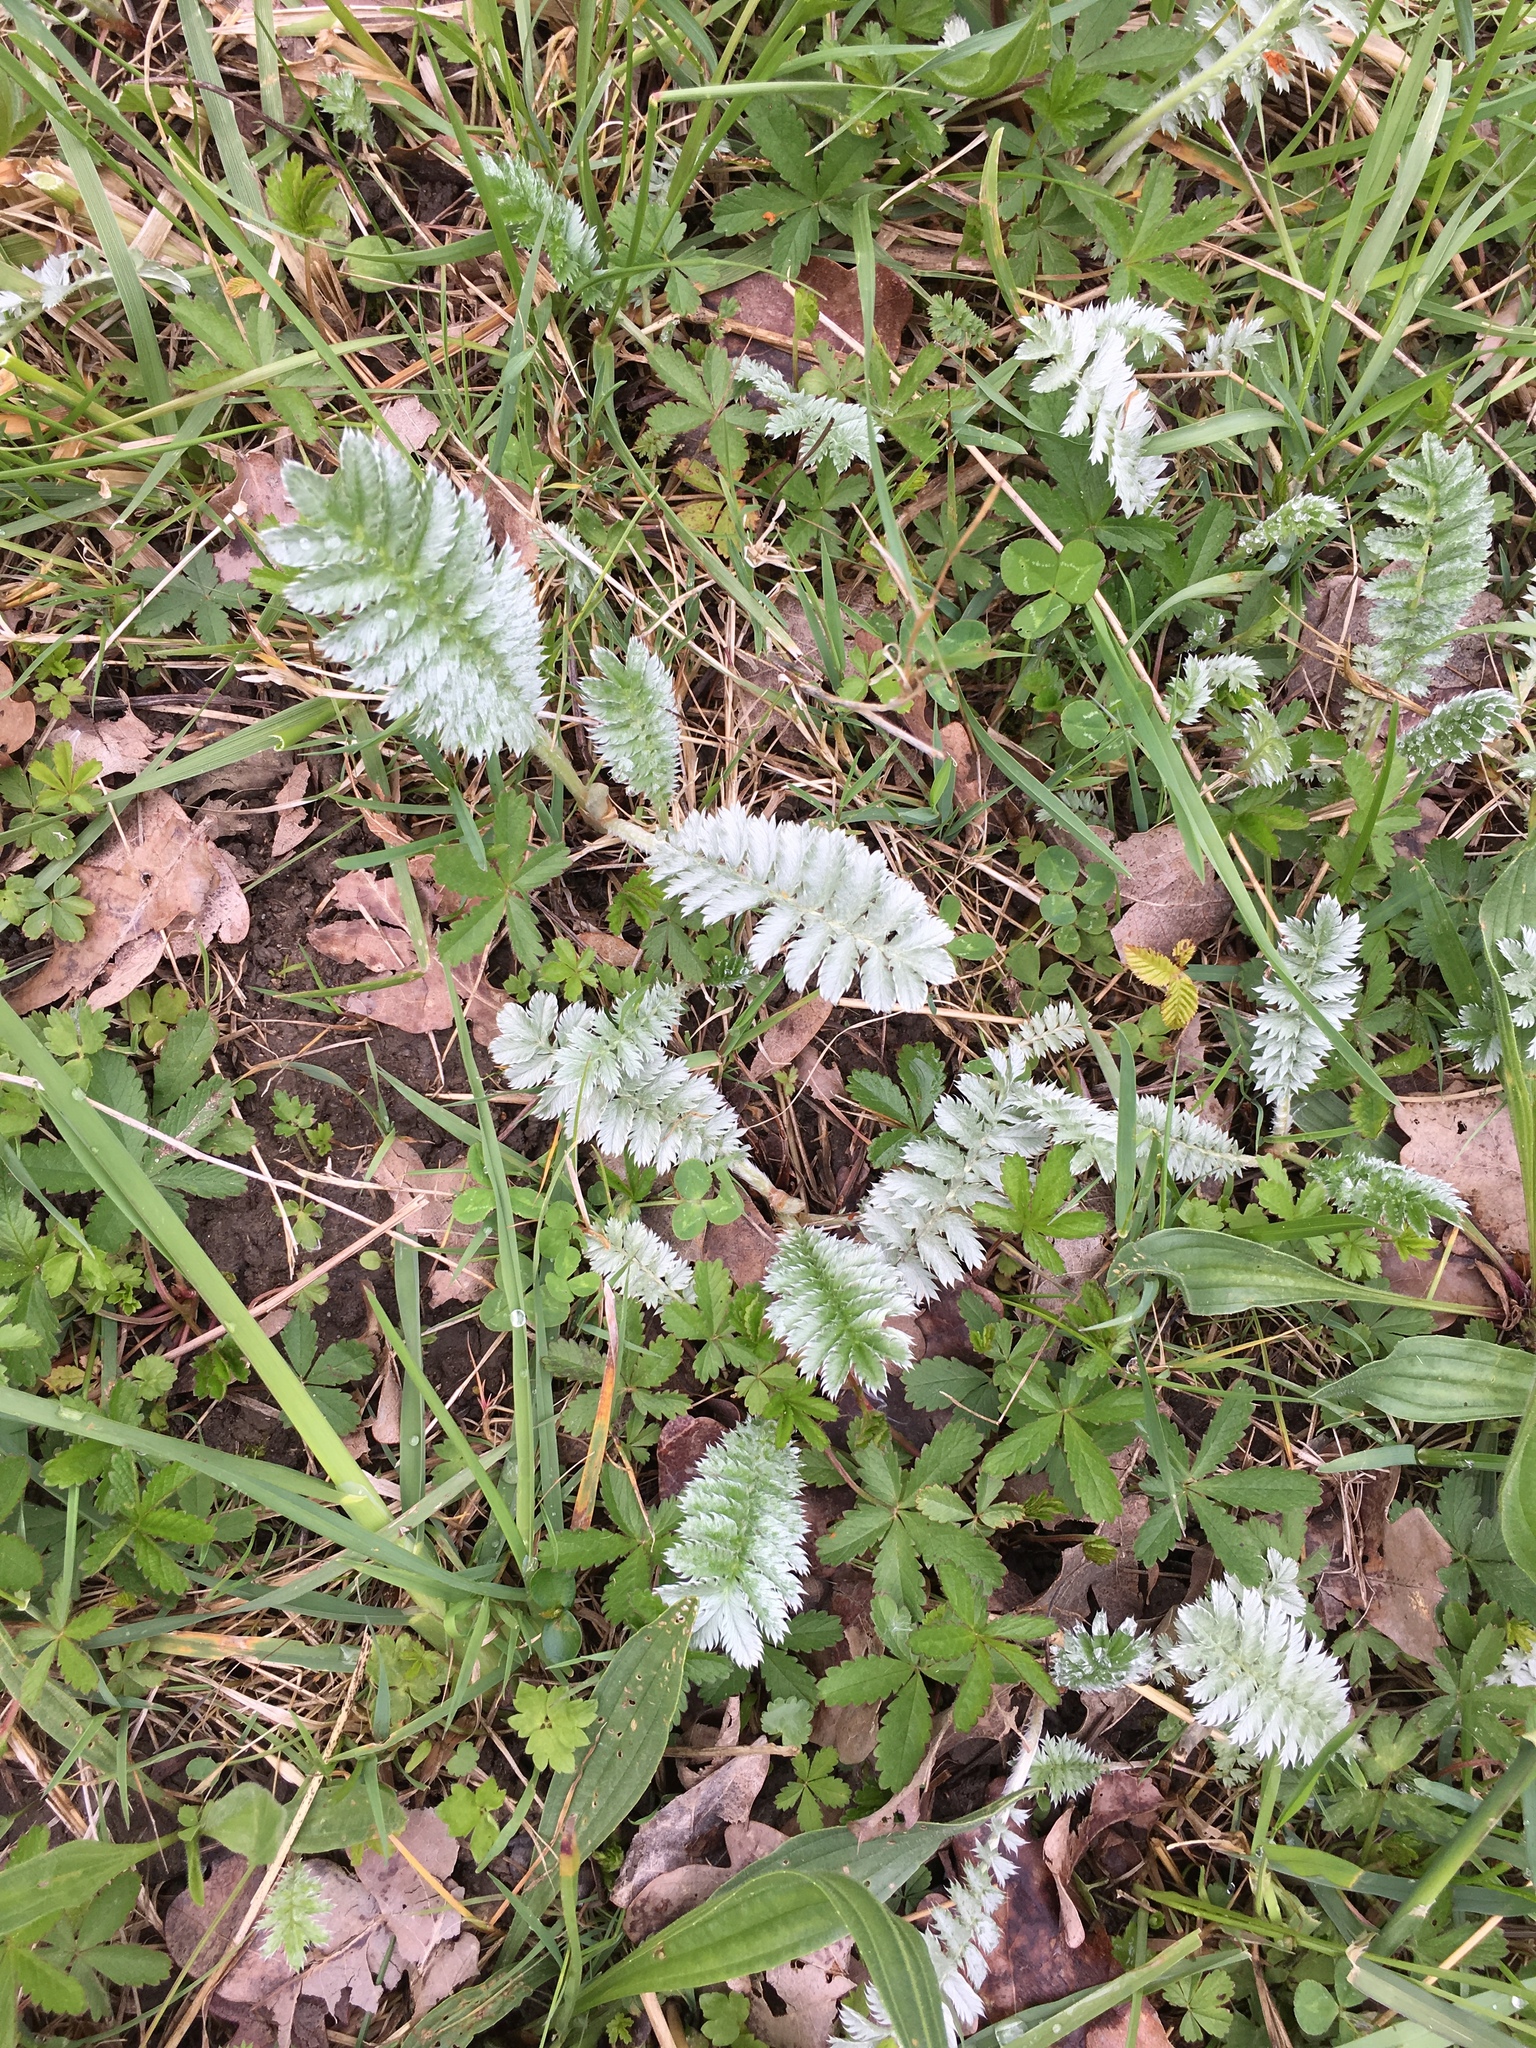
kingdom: Plantae
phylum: Tracheophyta
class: Magnoliopsida
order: Rosales
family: Rosaceae
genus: Argentina
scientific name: Argentina anserina
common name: Common silverweed
